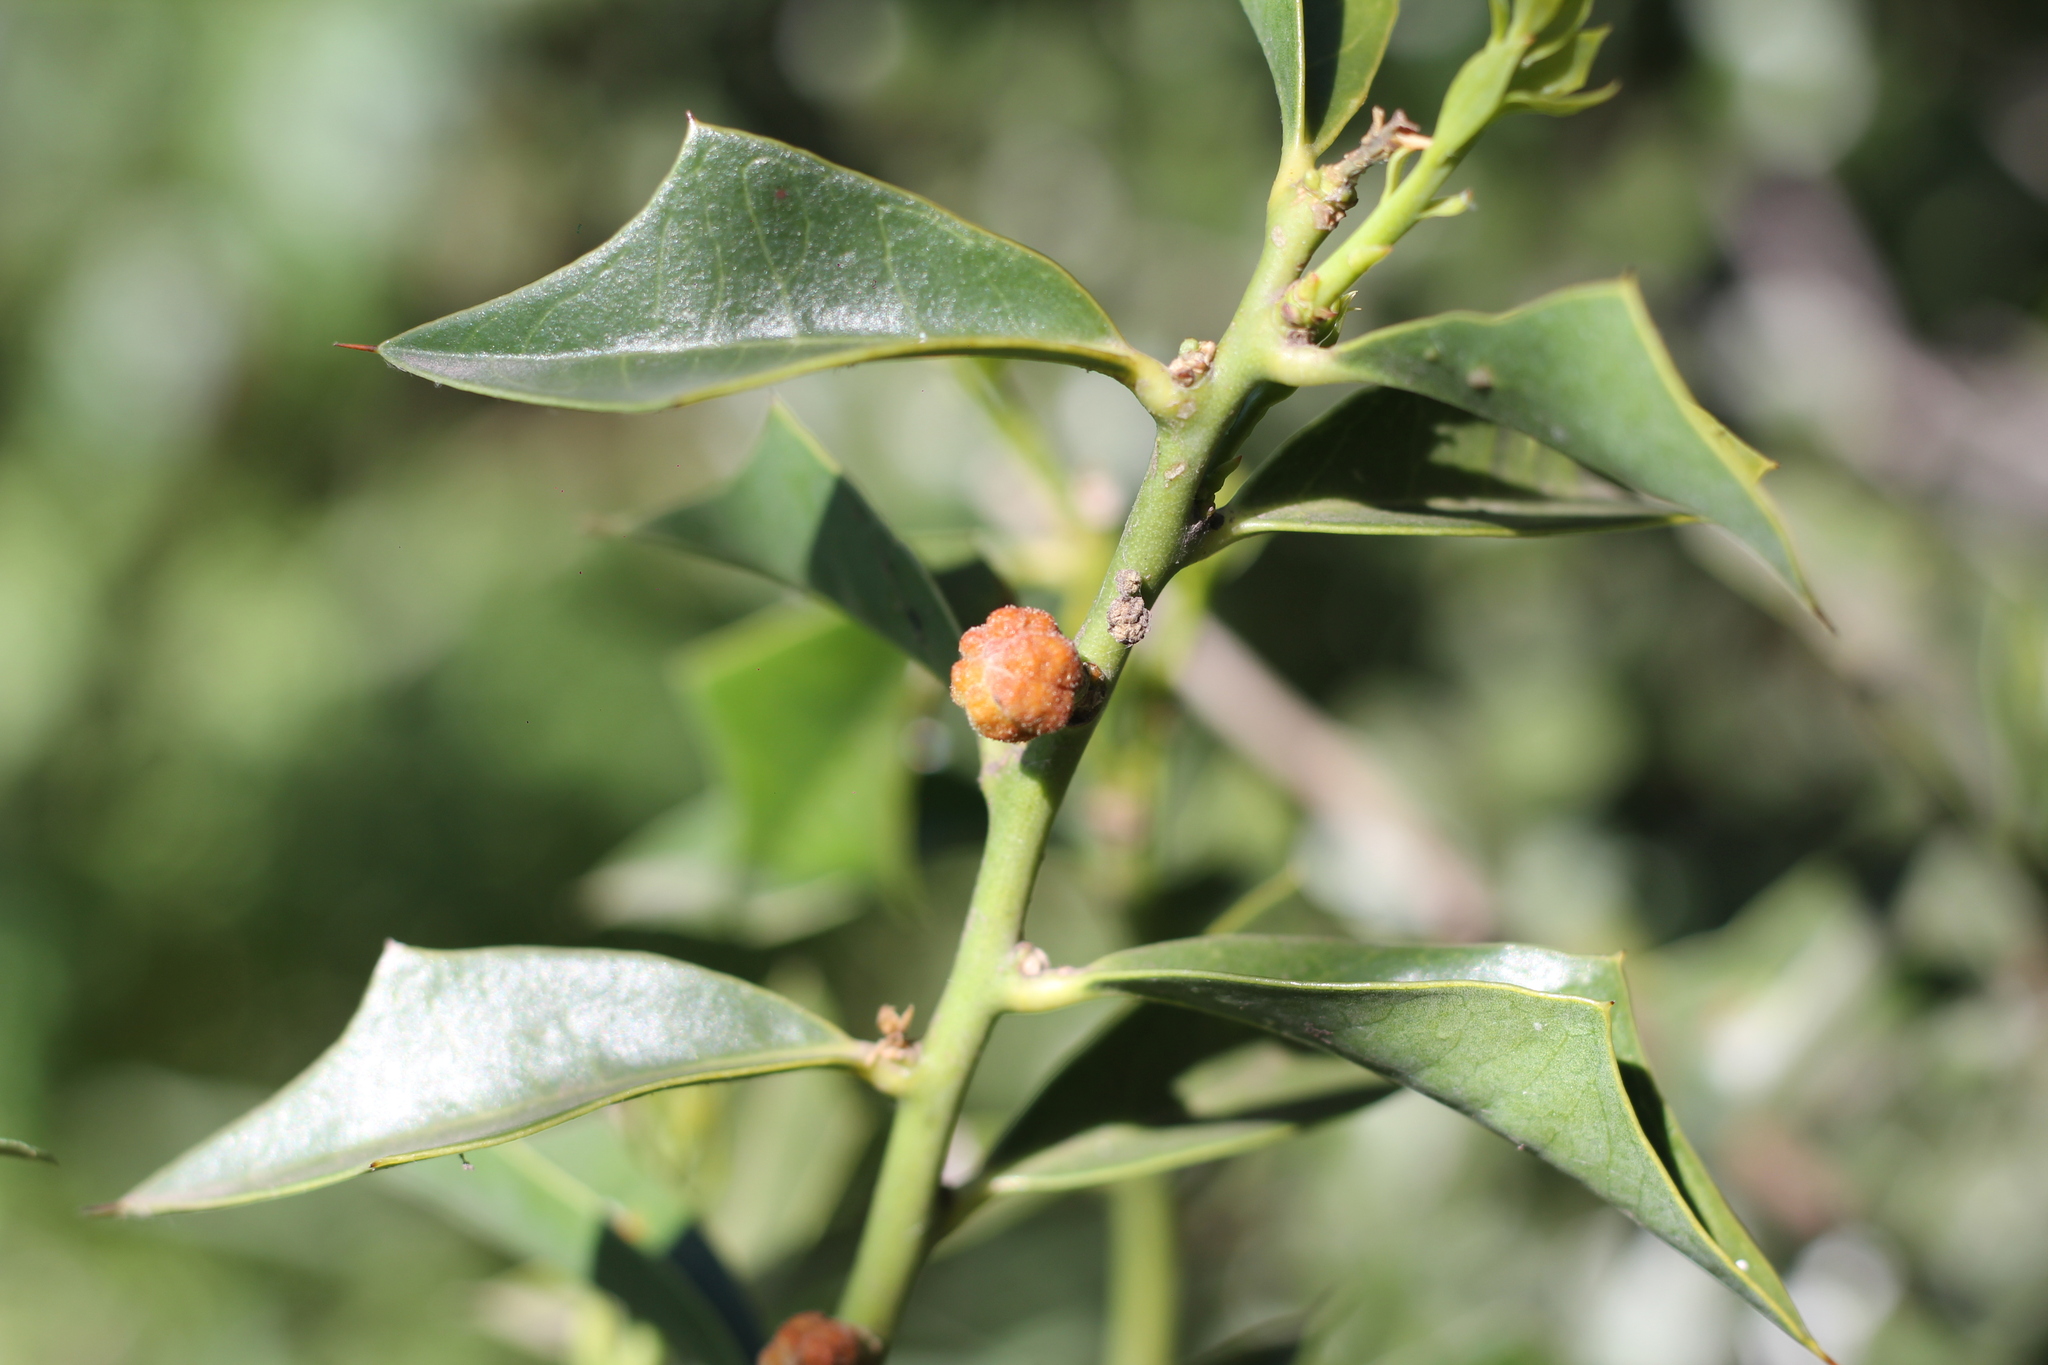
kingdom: Plantae
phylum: Tracheophyta
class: Magnoliopsida
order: Santalales
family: Cervantesiaceae
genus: Jodina
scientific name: Jodina rhombifolia
